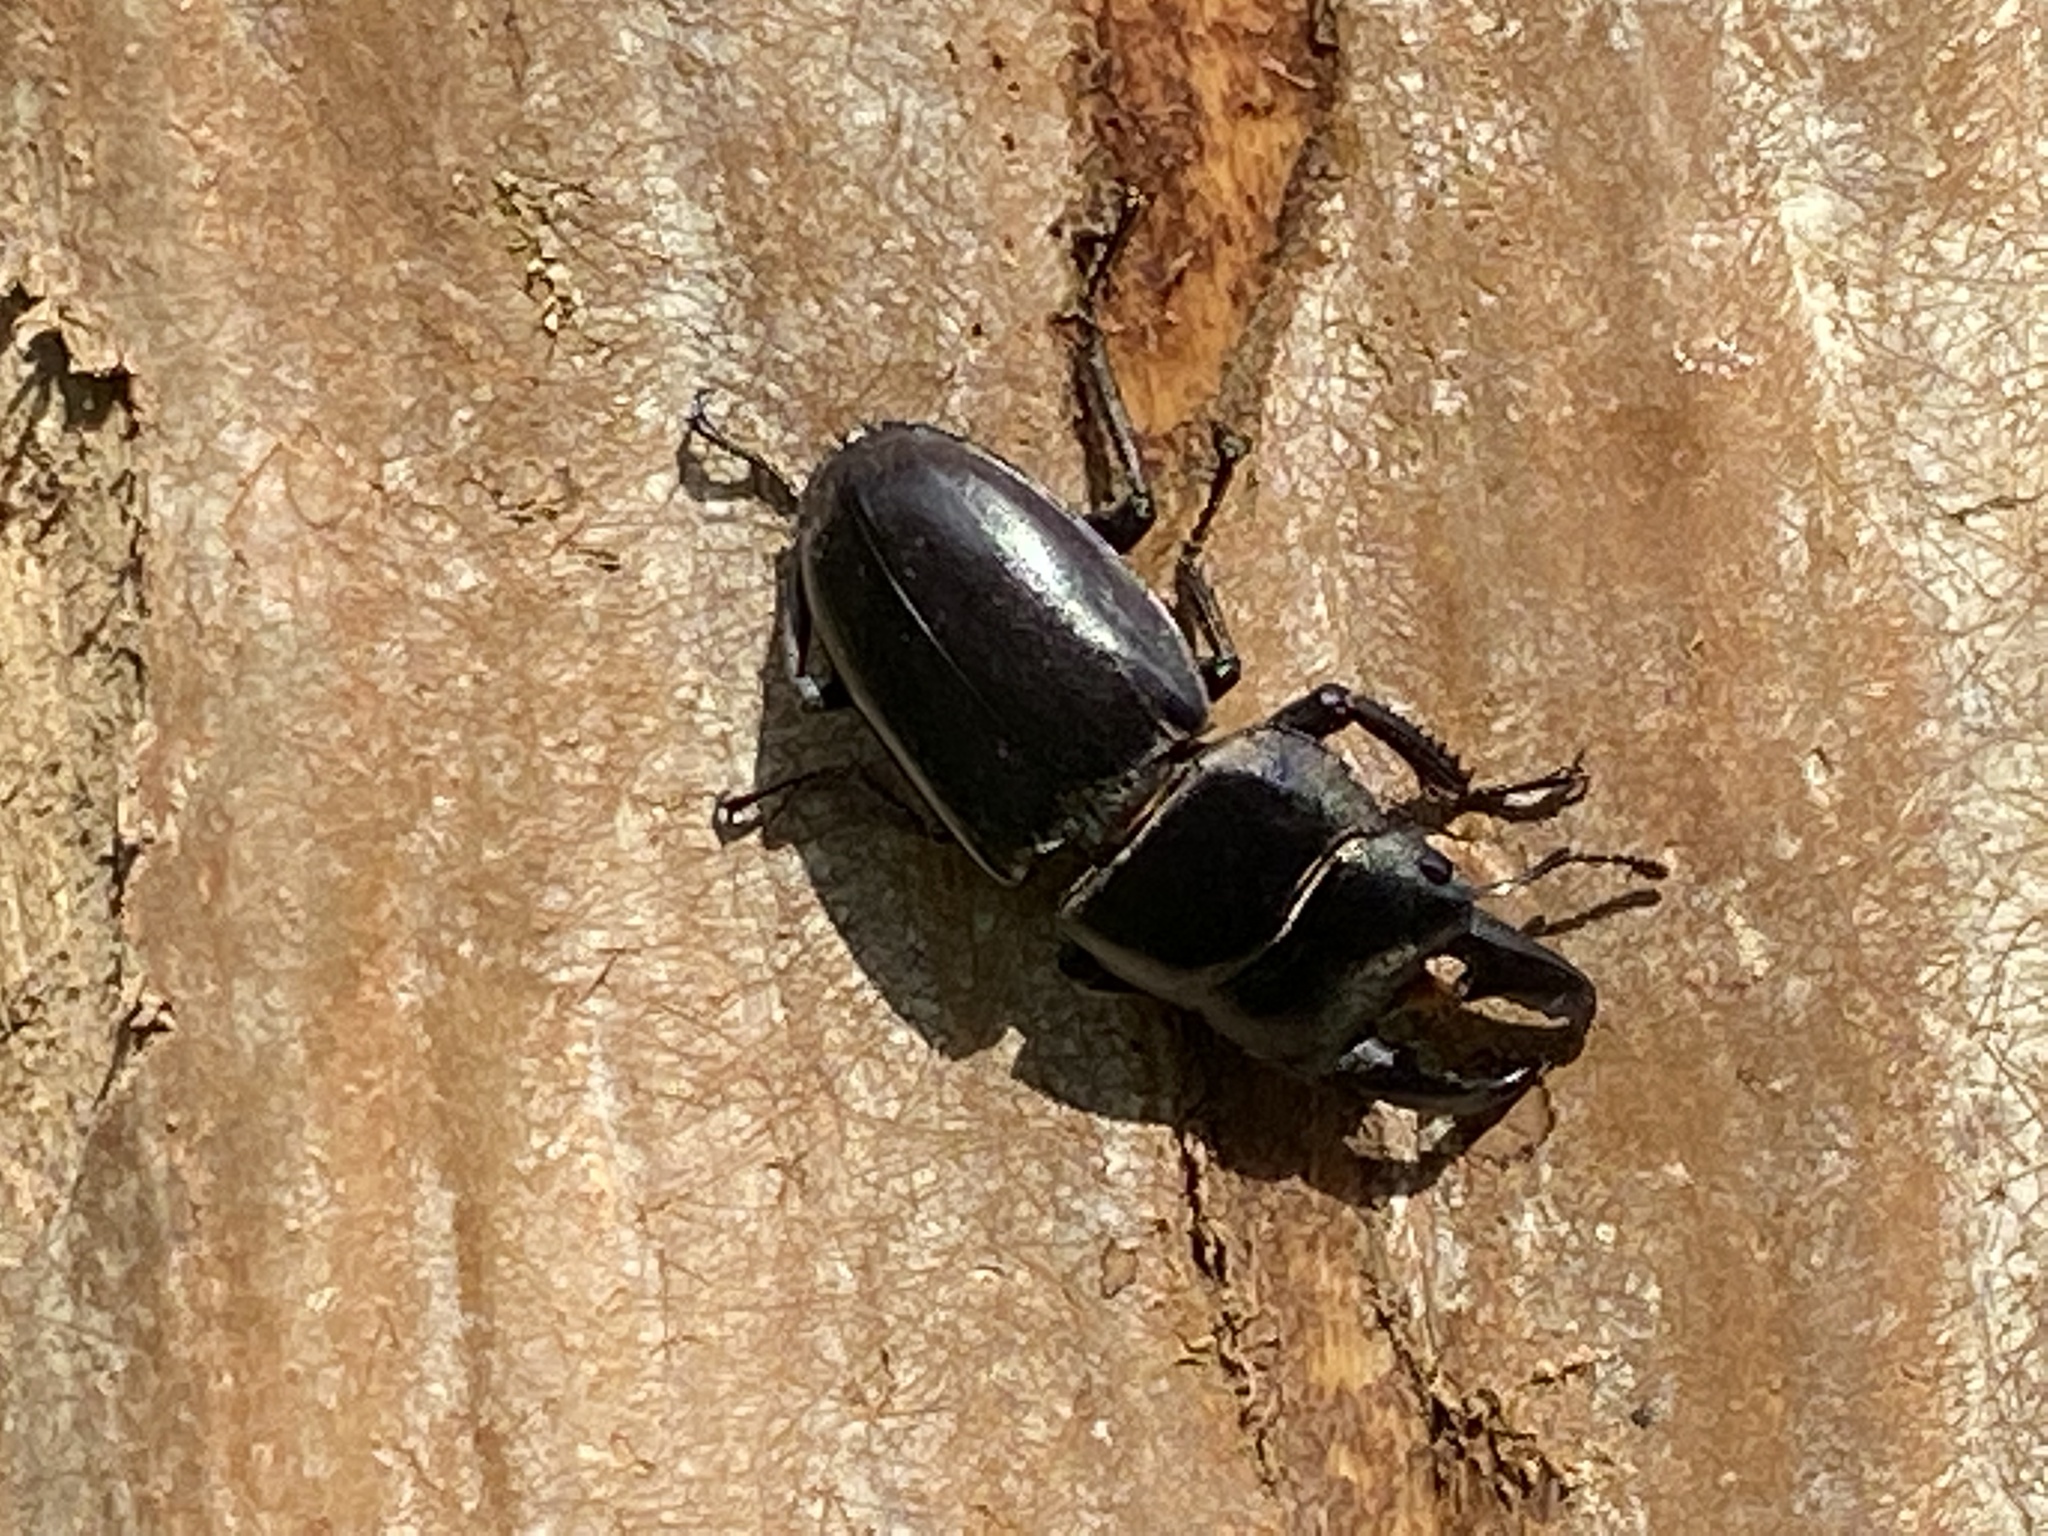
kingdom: Animalia
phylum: Arthropoda
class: Insecta
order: Coleoptera
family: Lucanidae
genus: Serrognathus
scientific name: Serrognathus titanus
